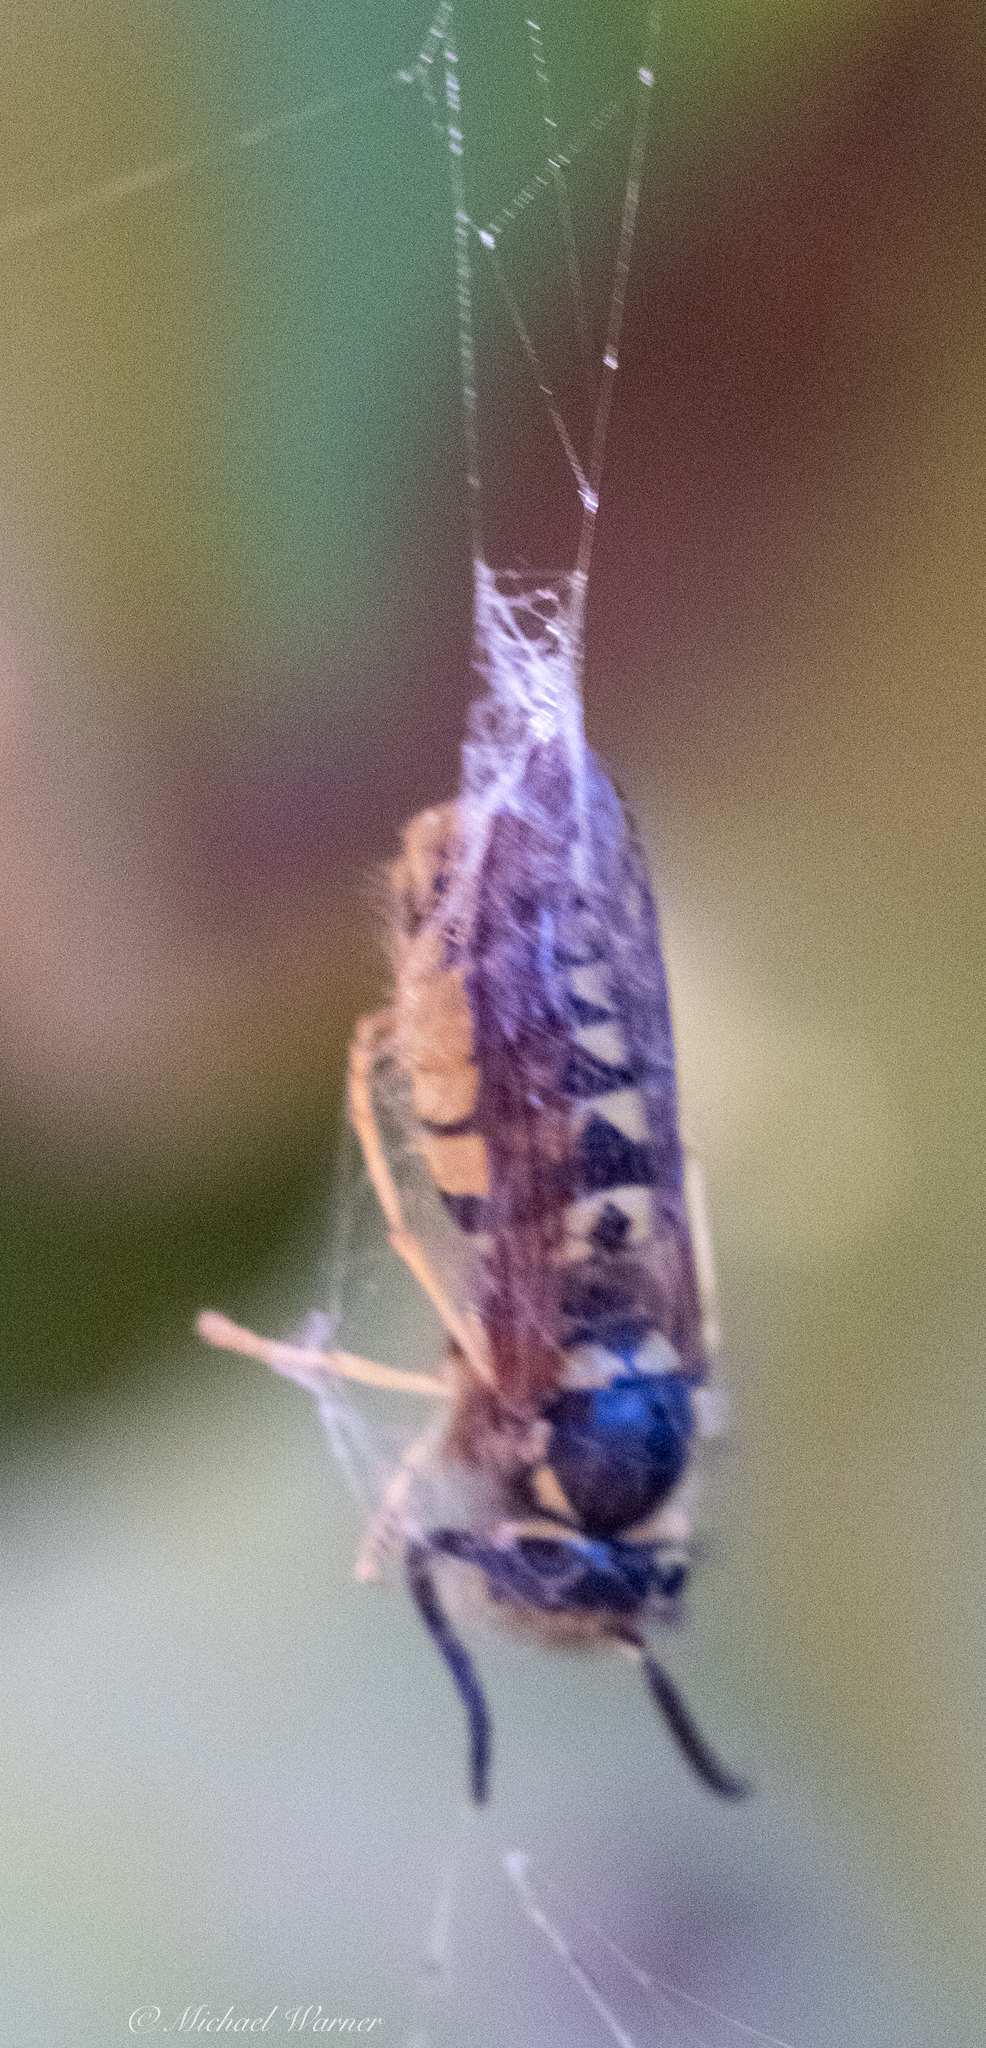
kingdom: Animalia
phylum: Arthropoda
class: Insecta
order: Hymenoptera
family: Vespidae
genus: Vespula
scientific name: Vespula pensylvanica
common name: Western yellowjacket
